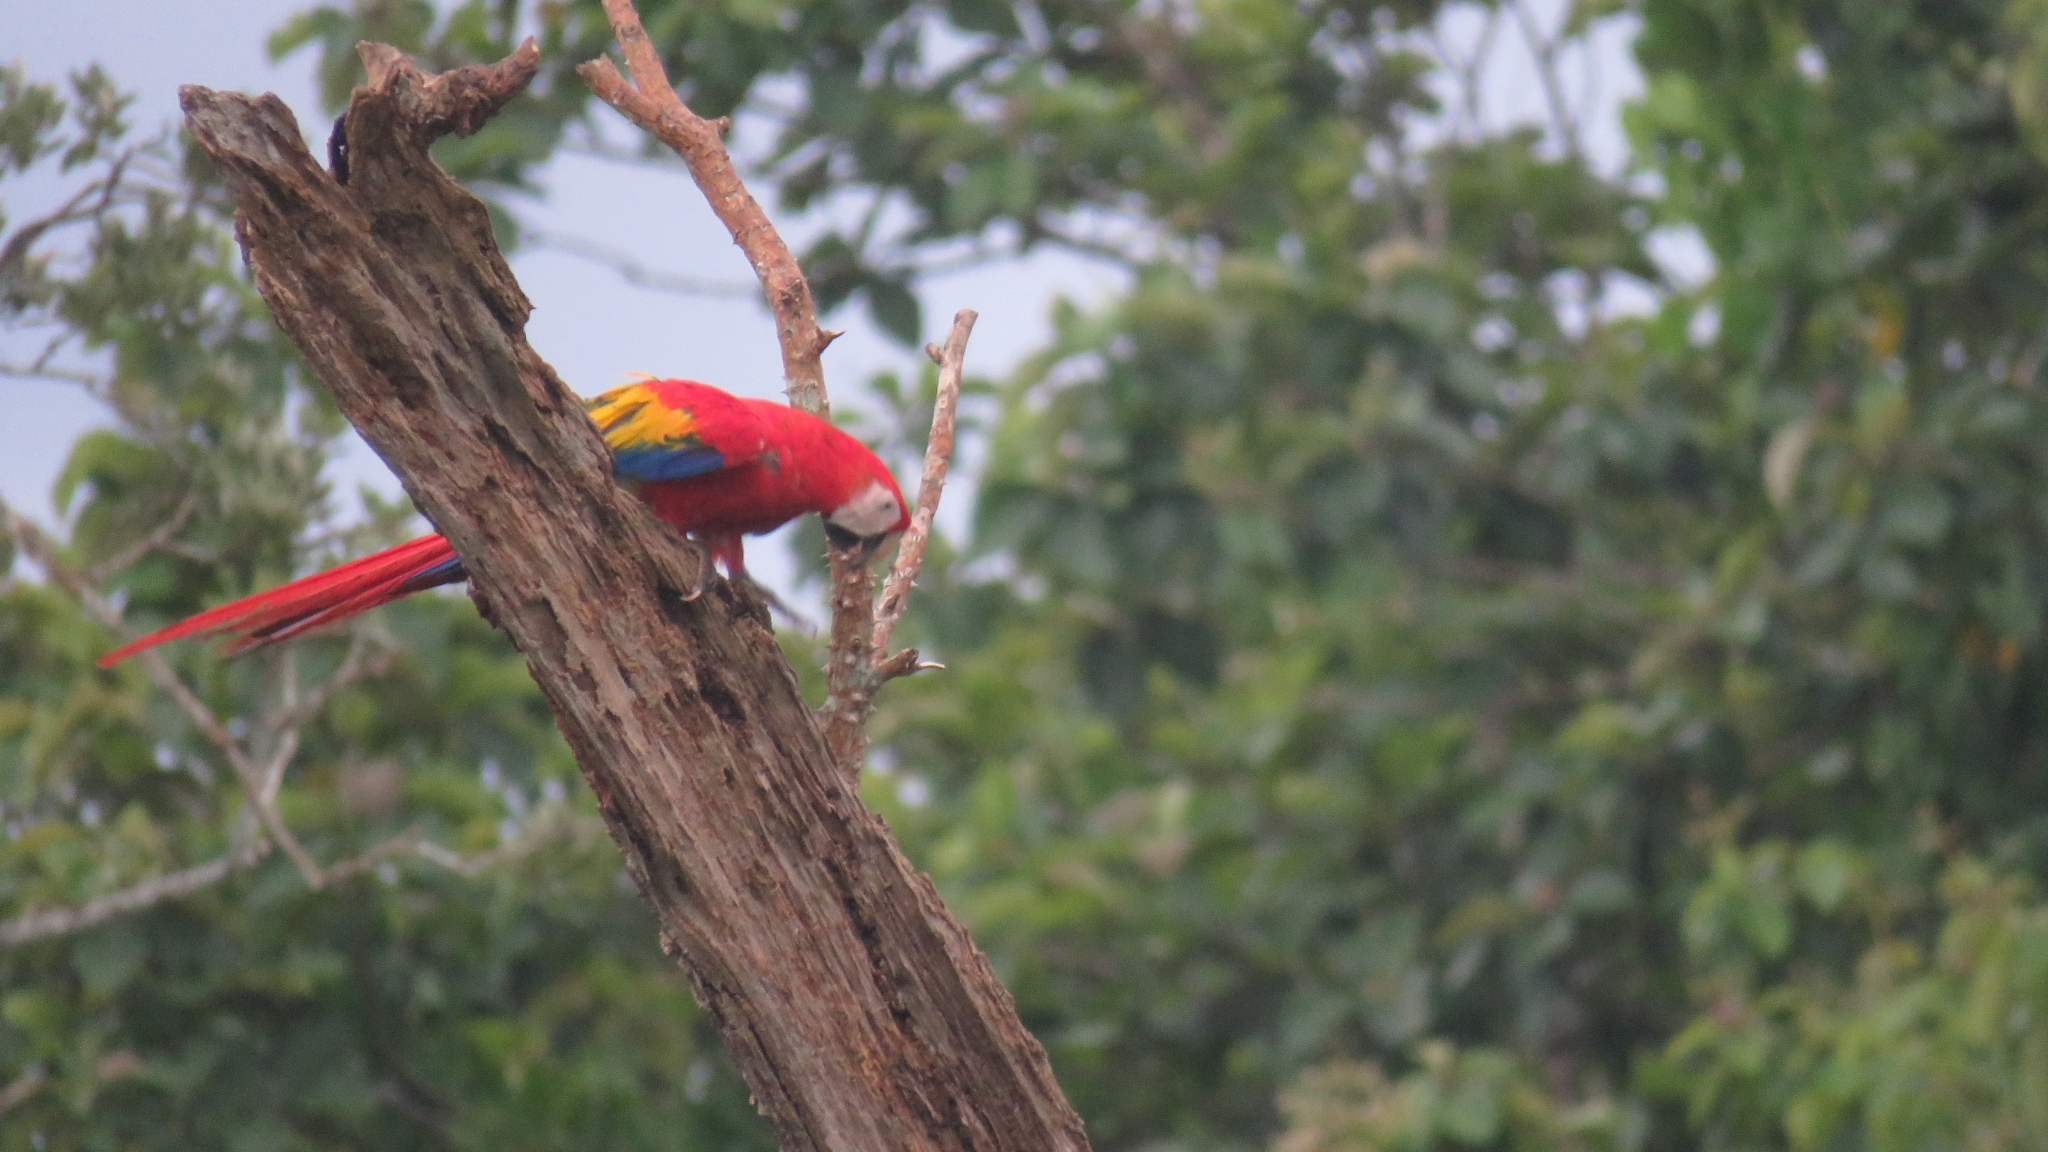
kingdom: Animalia
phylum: Chordata
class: Aves
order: Psittaciformes
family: Psittacidae
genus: Ara
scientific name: Ara macao
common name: Scarlet macaw
